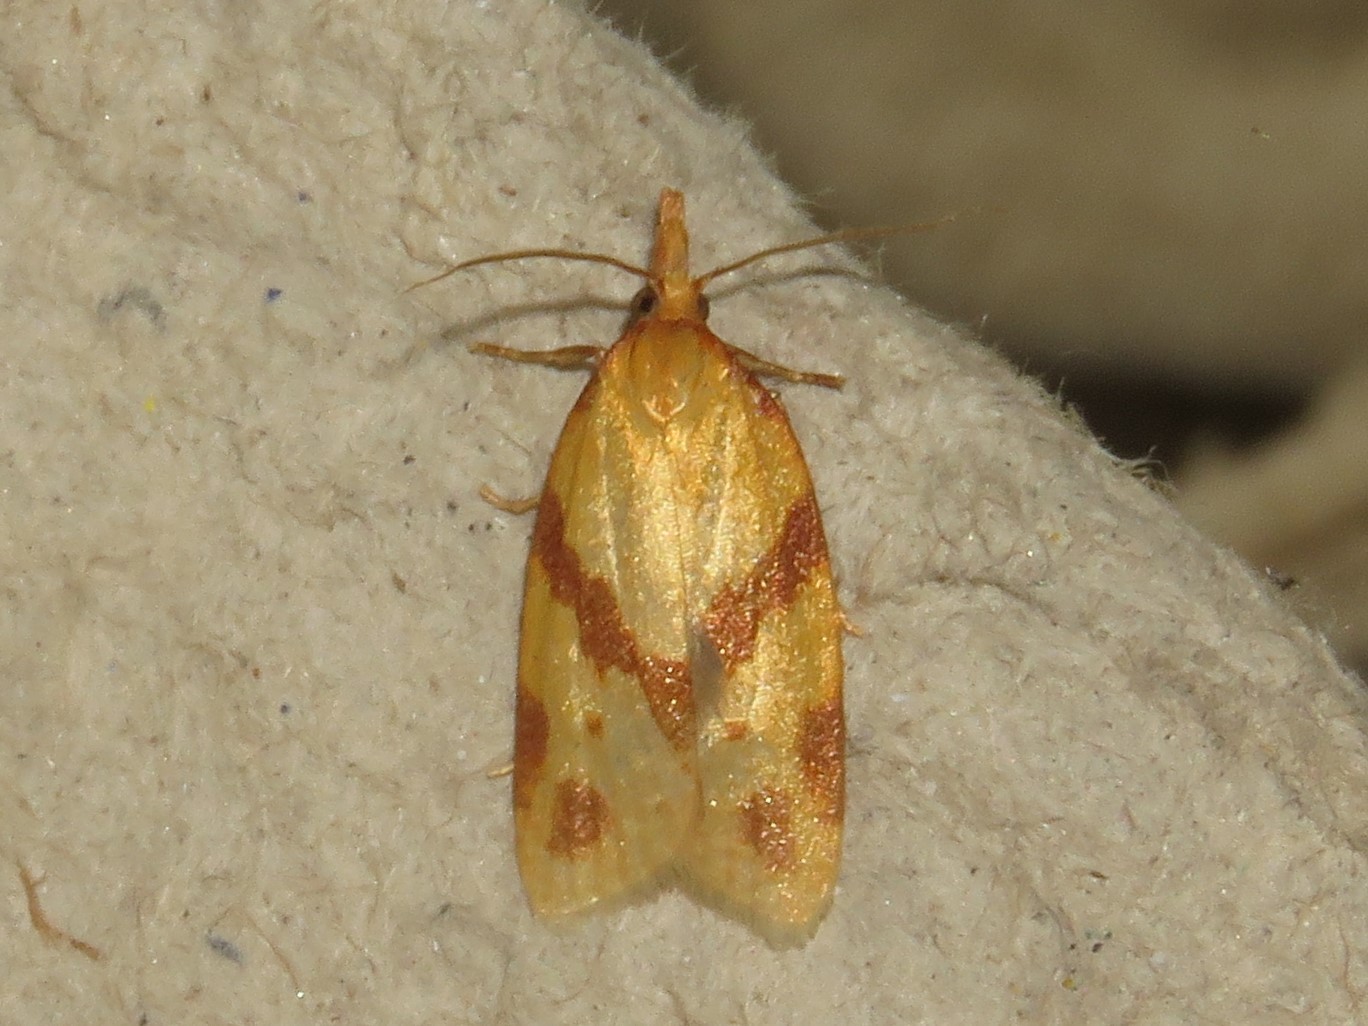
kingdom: Animalia
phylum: Arthropoda
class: Insecta
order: Lepidoptera
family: Tortricidae
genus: Sparganothis
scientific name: Sparganothis unifasciana
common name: One-lined sparganothis moth
